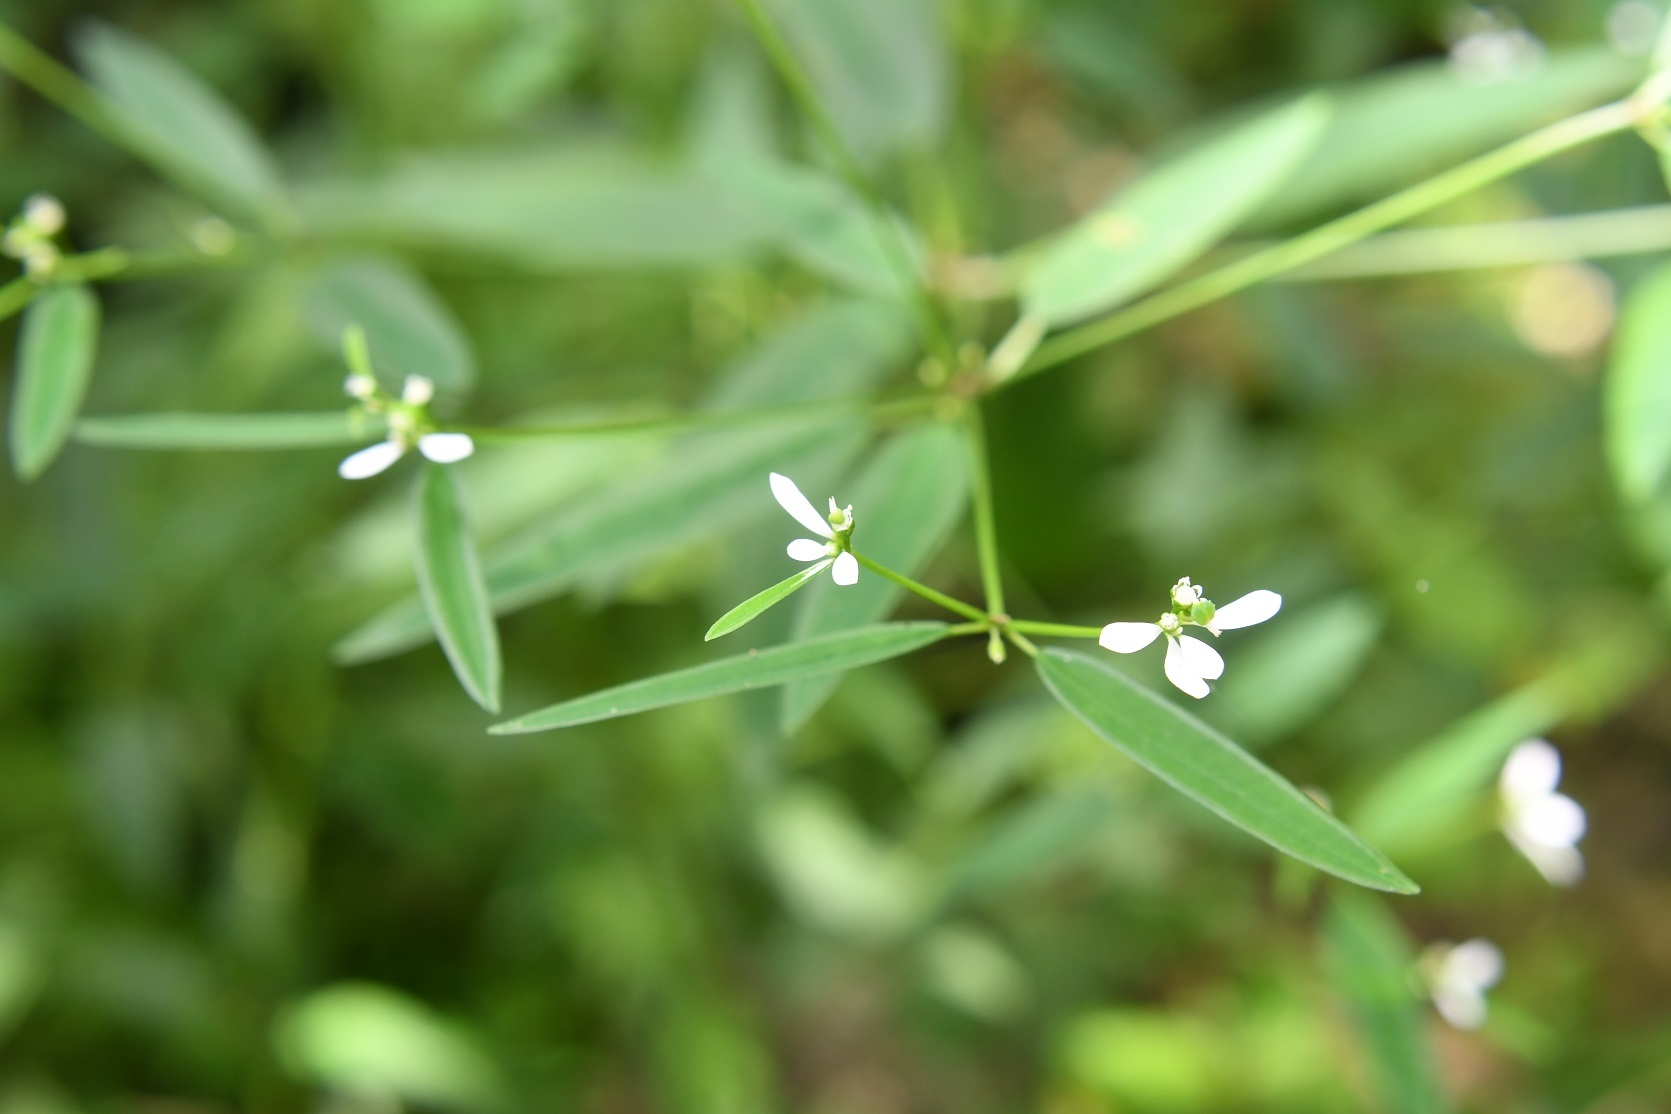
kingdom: Plantae
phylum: Tracheophyta
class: Magnoliopsida
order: Malpighiales
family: Euphorbiaceae
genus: Euphorbia
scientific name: Euphorbia ariensis
